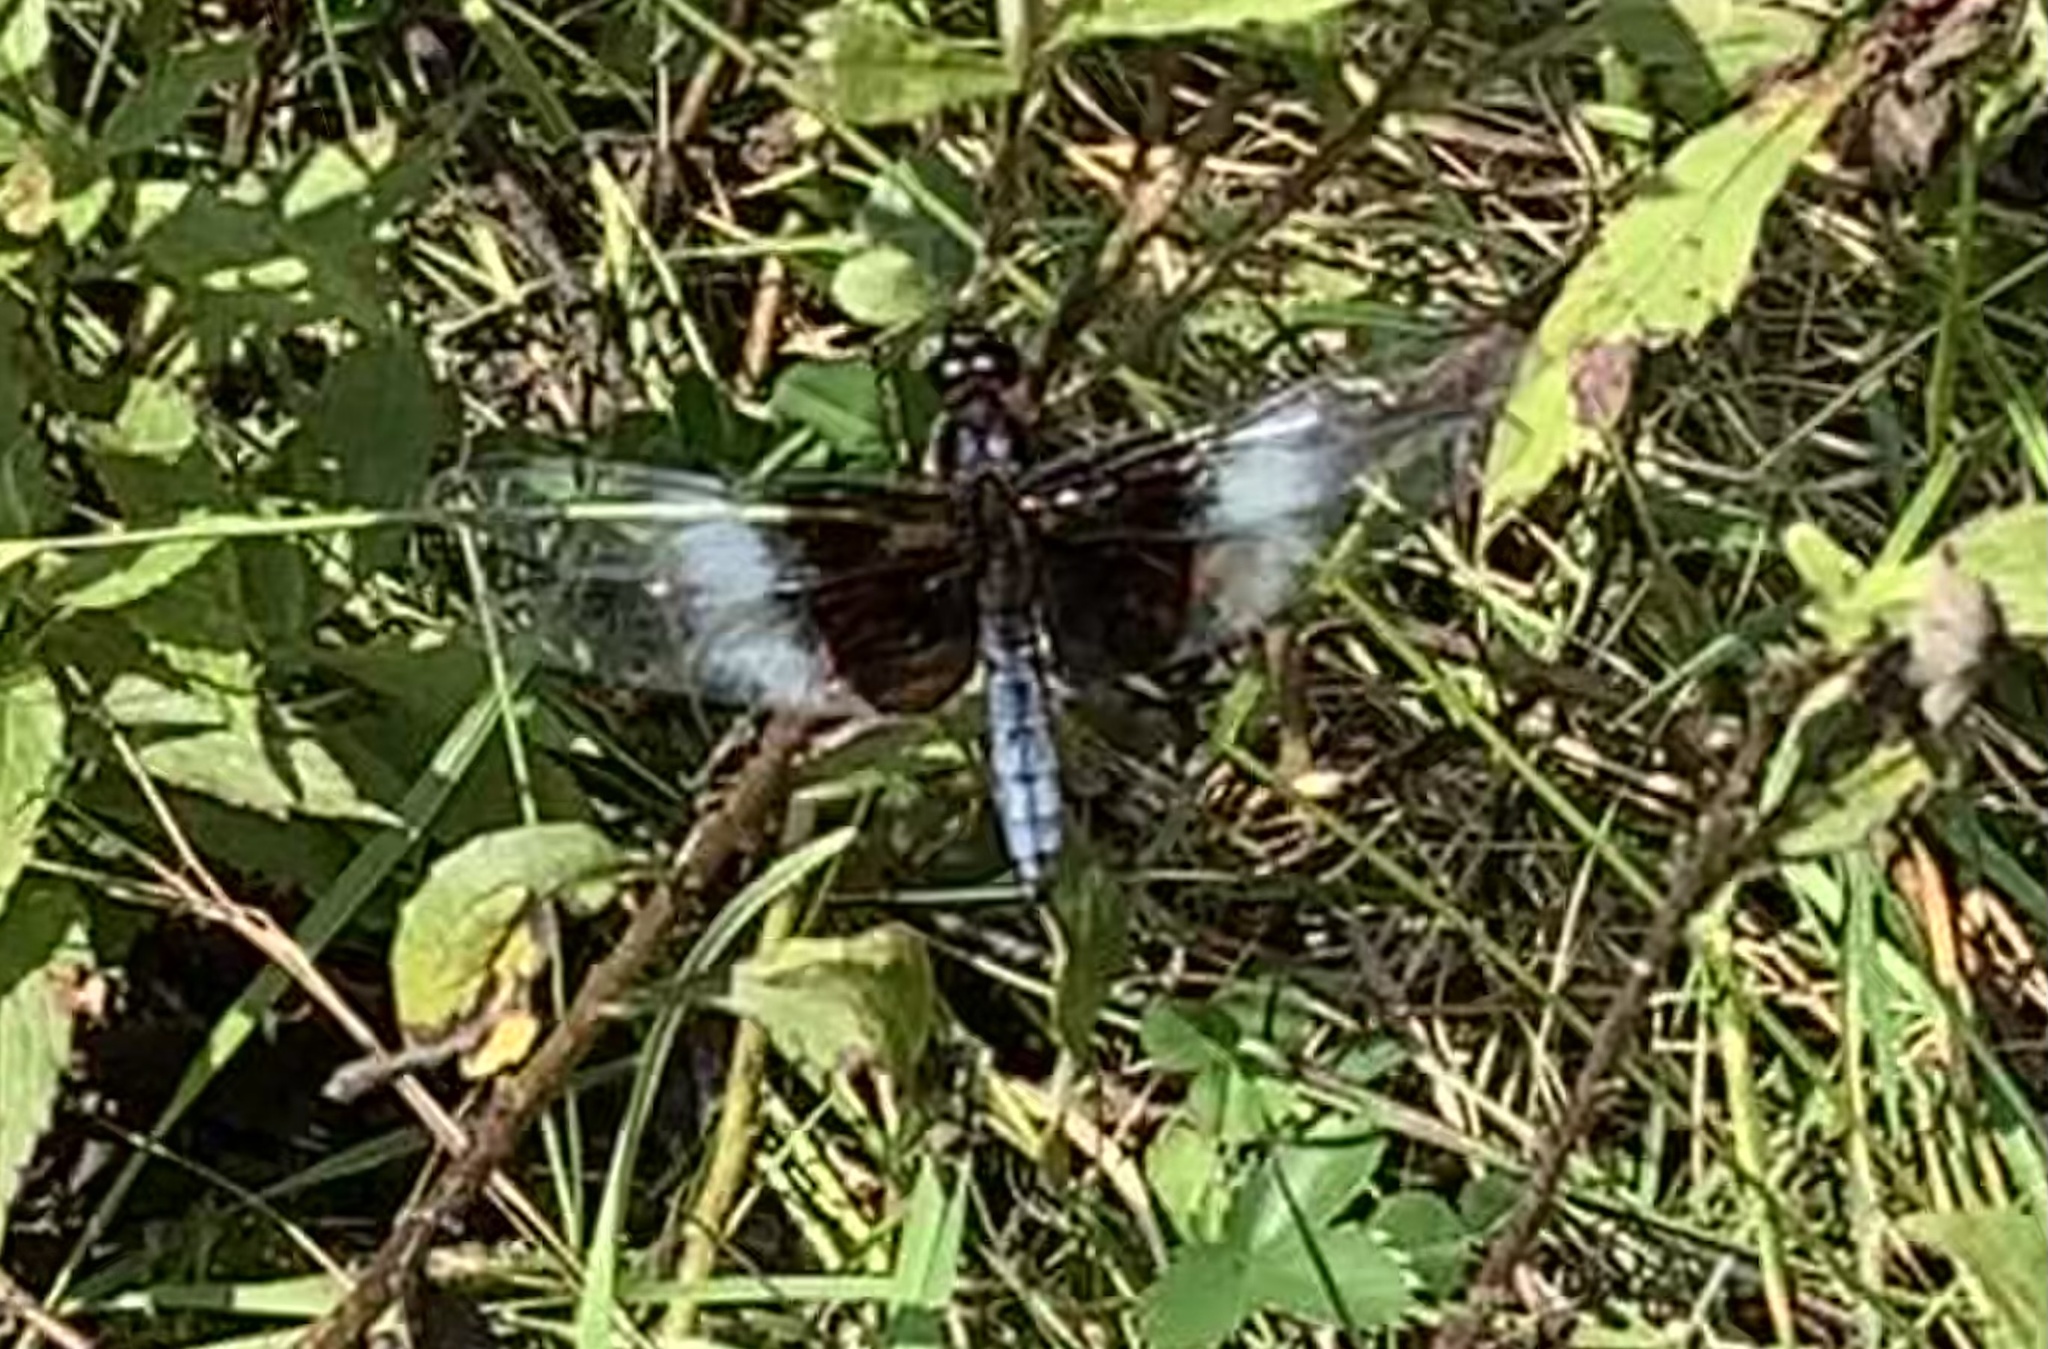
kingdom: Animalia
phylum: Arthropoda
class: Insecta
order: Odonata
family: Libellulidae
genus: Libellula
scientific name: Libellula luctuosa
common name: Widow skimmer
